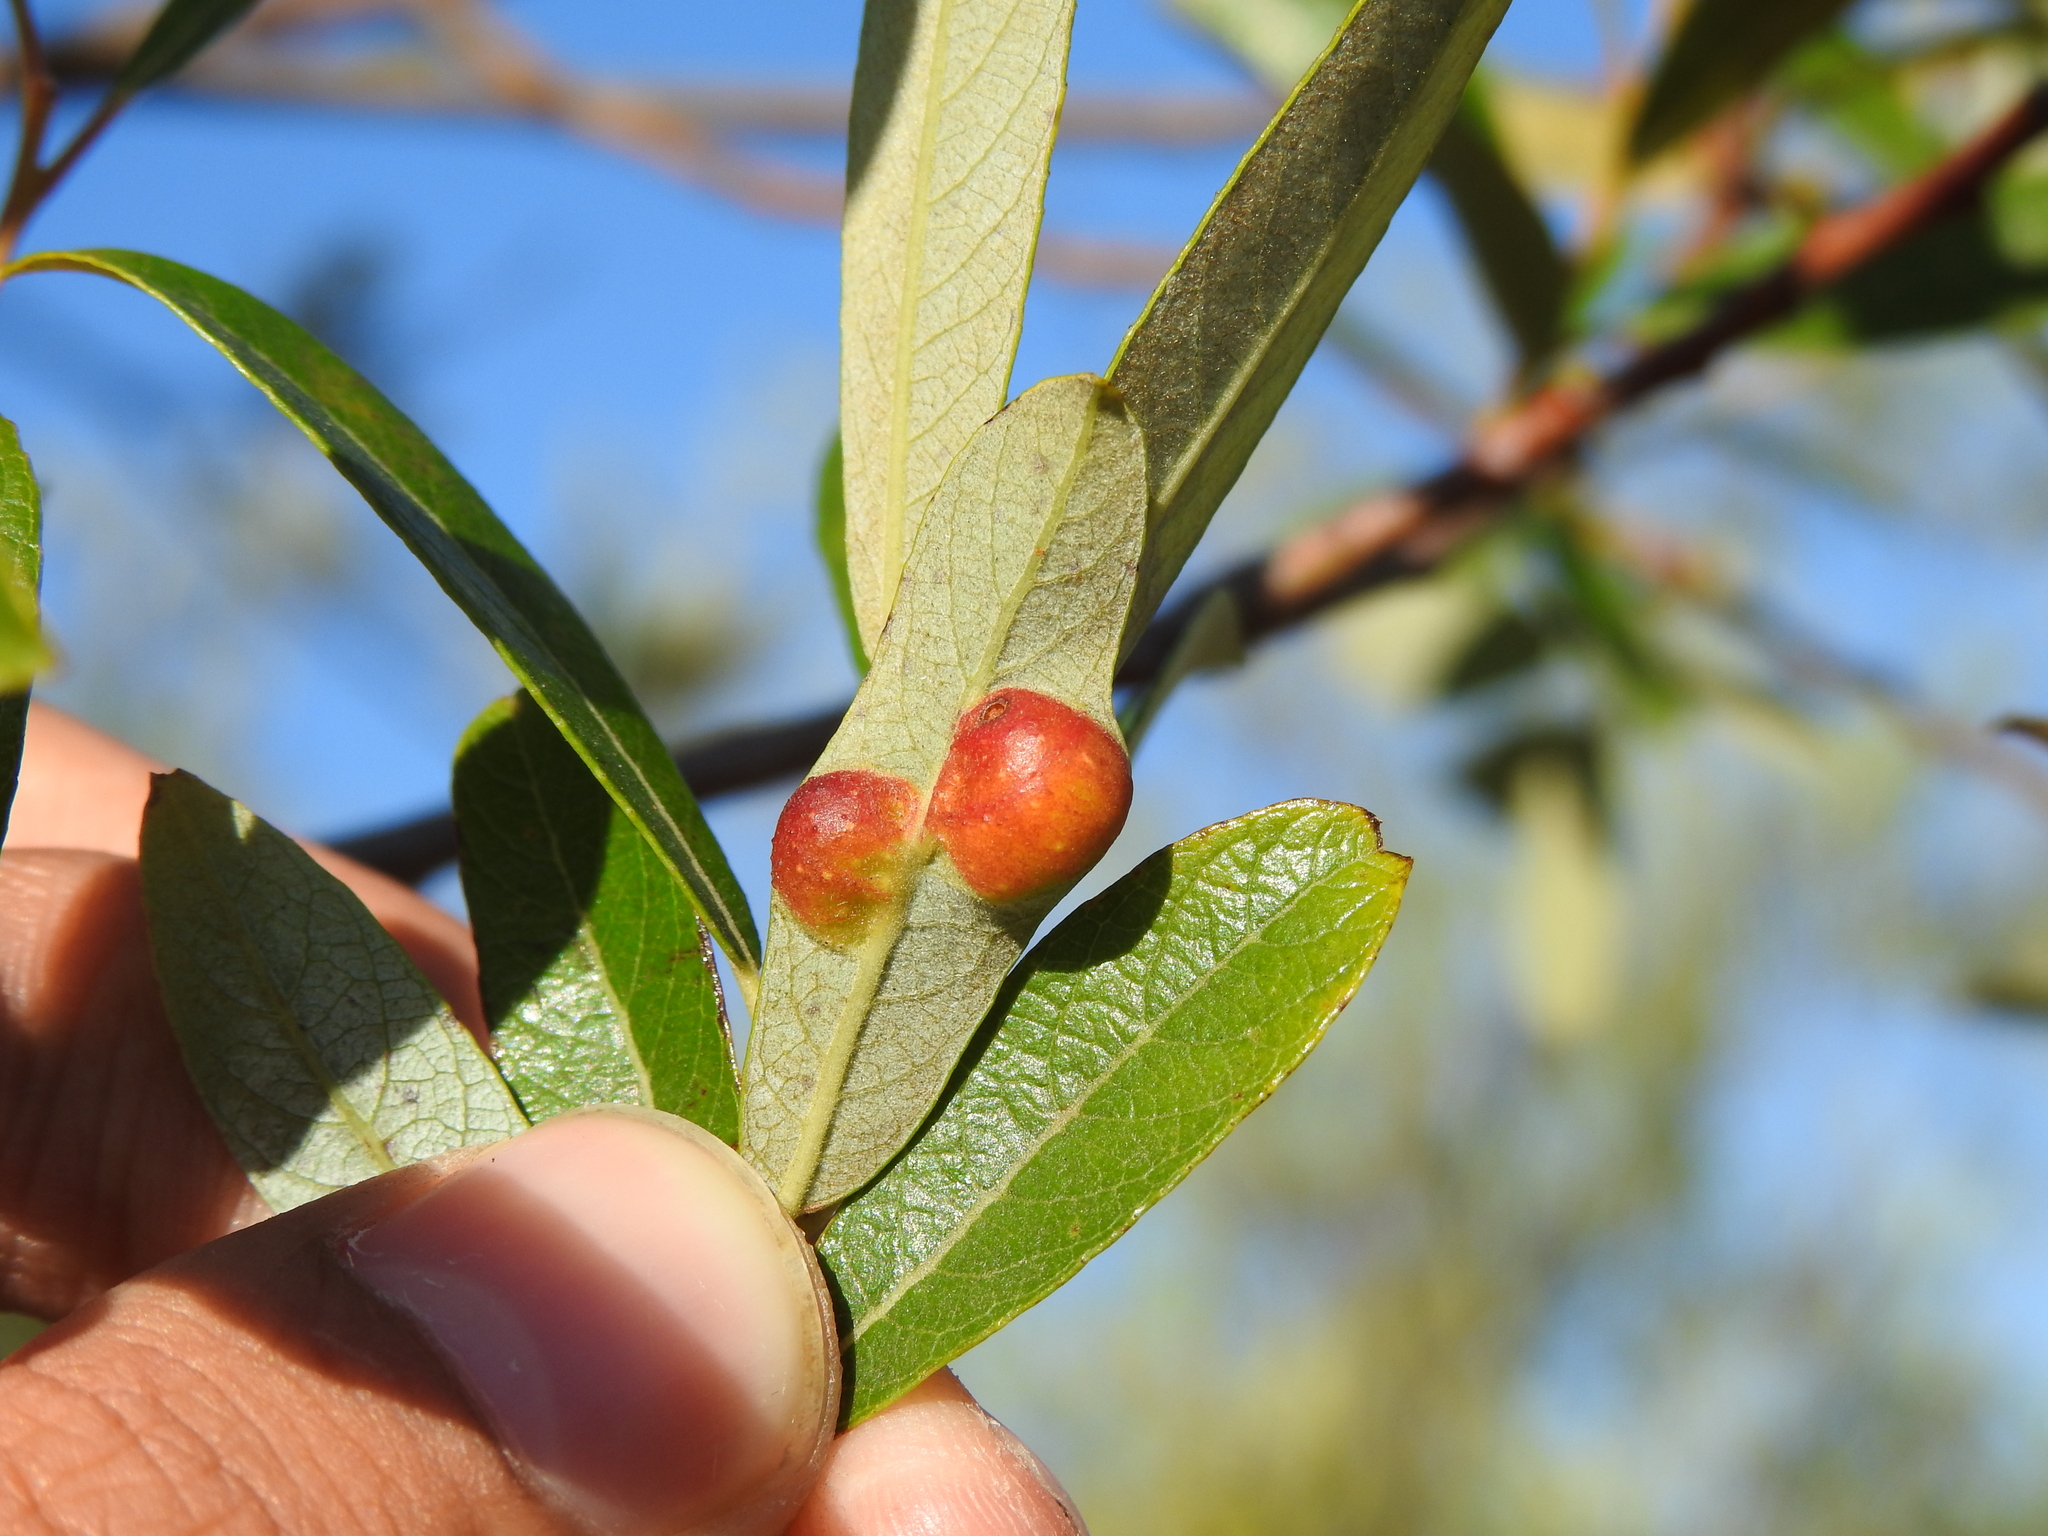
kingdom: Animalia
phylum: Arthropoda
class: Insecta
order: Hymenoptera
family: Tenthredinidae
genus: Euura
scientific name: Euura
